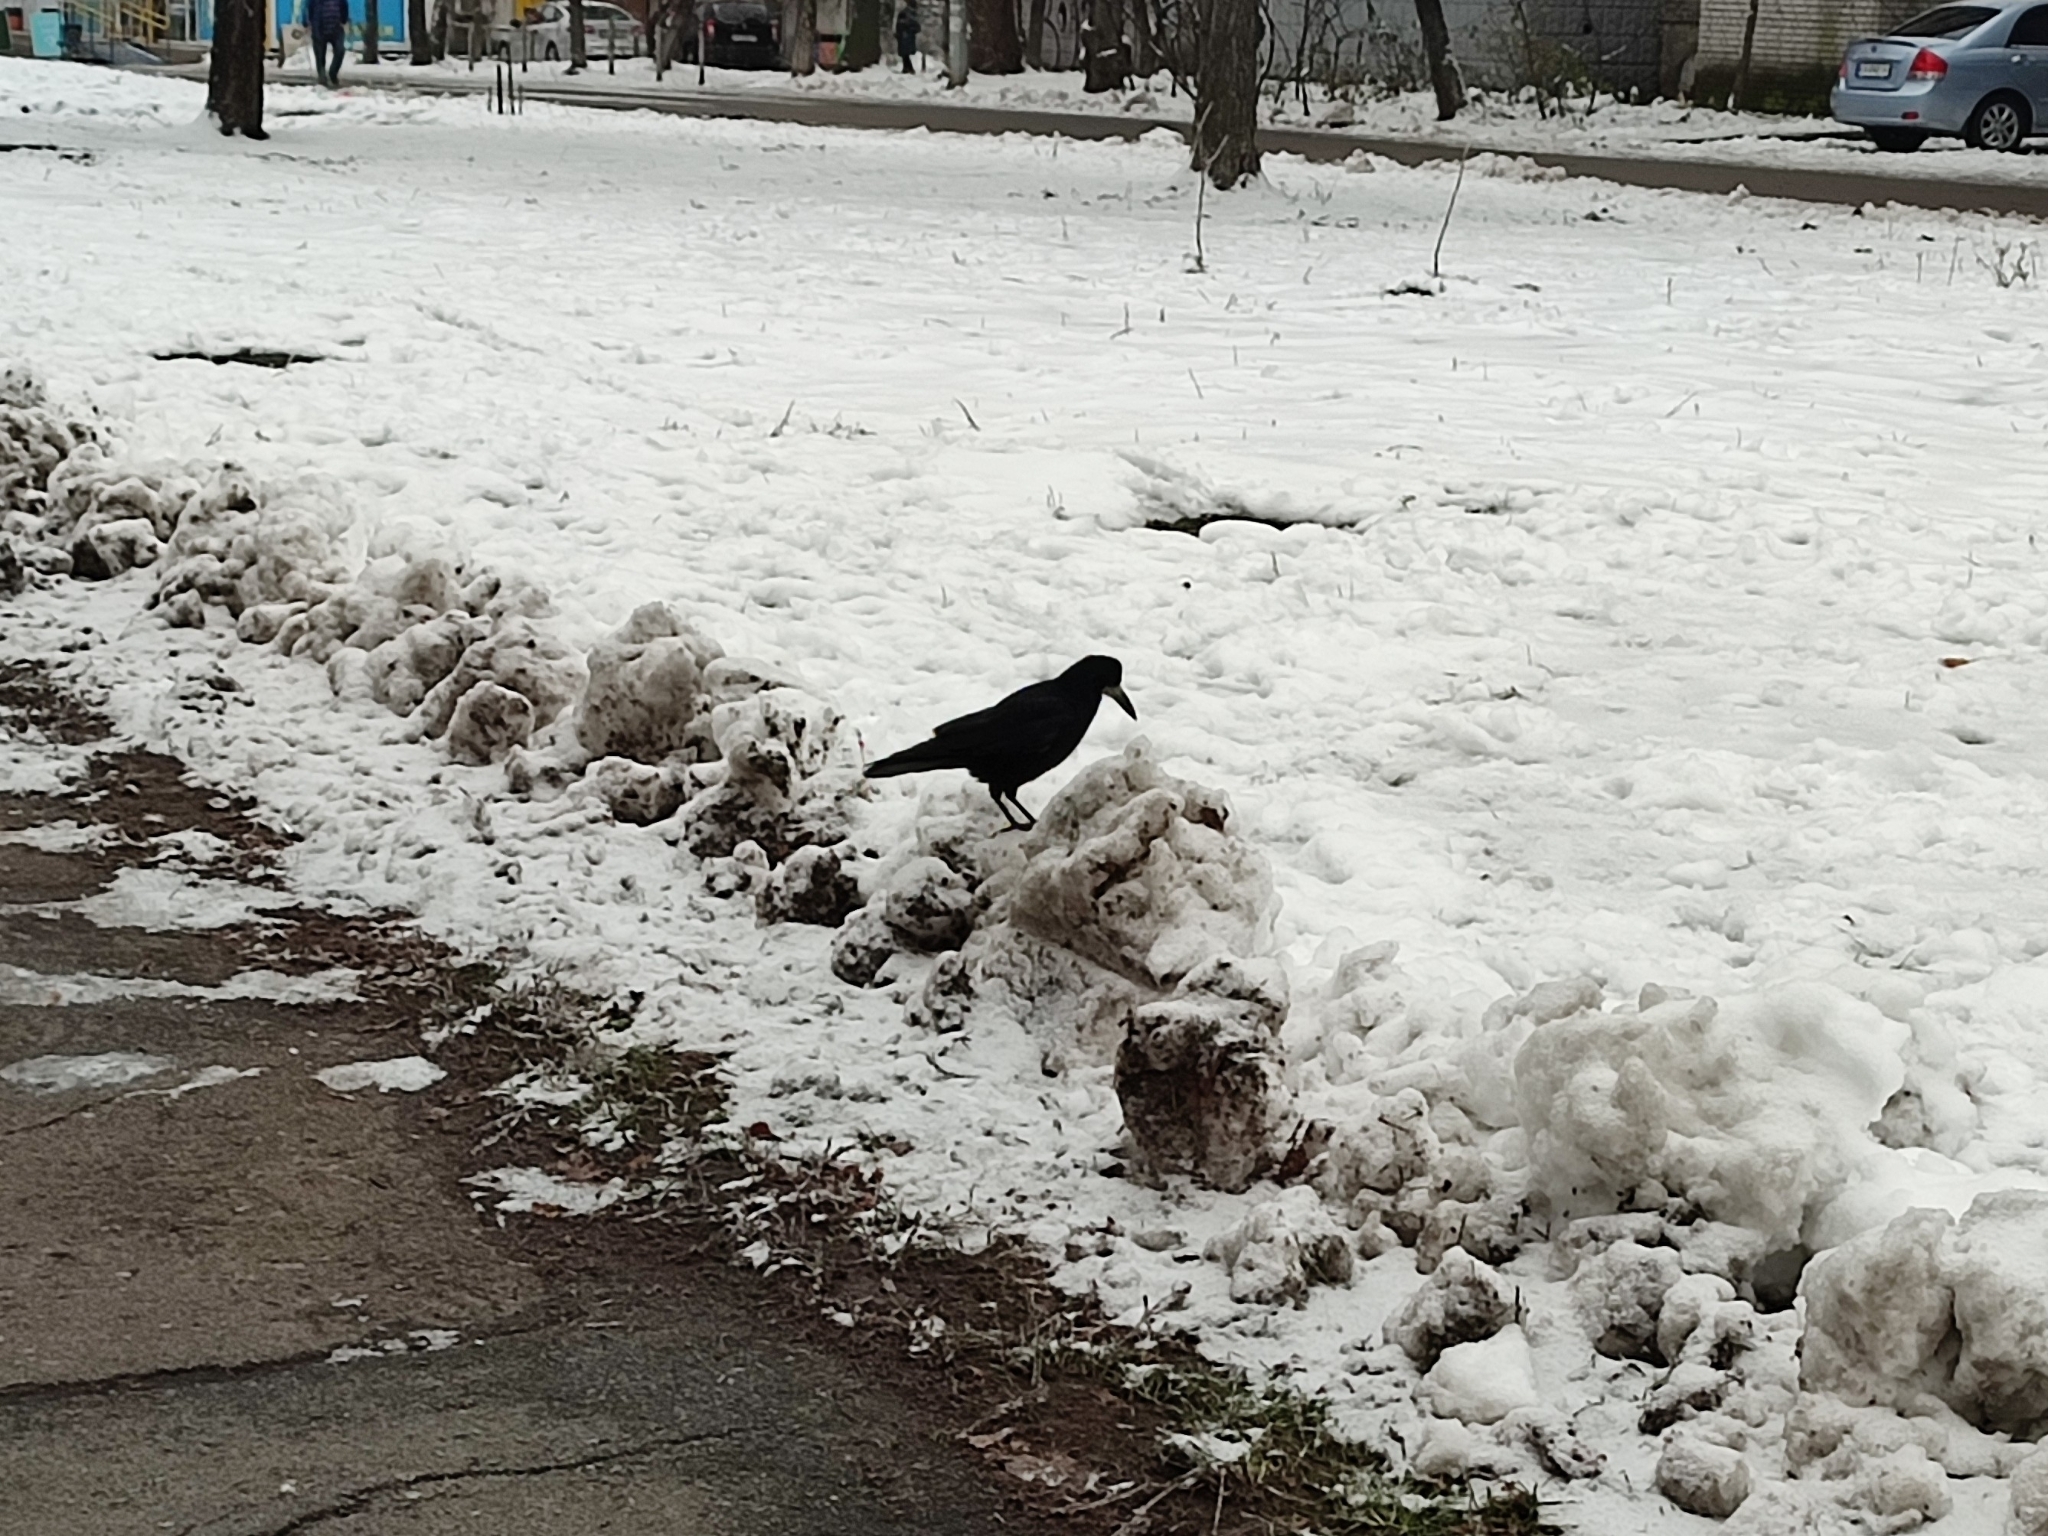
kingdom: Animalia
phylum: Chordata
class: Aves
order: Passeriformes
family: Corvidae
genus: Corvus
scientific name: Corvus frugilegus
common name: Rook
